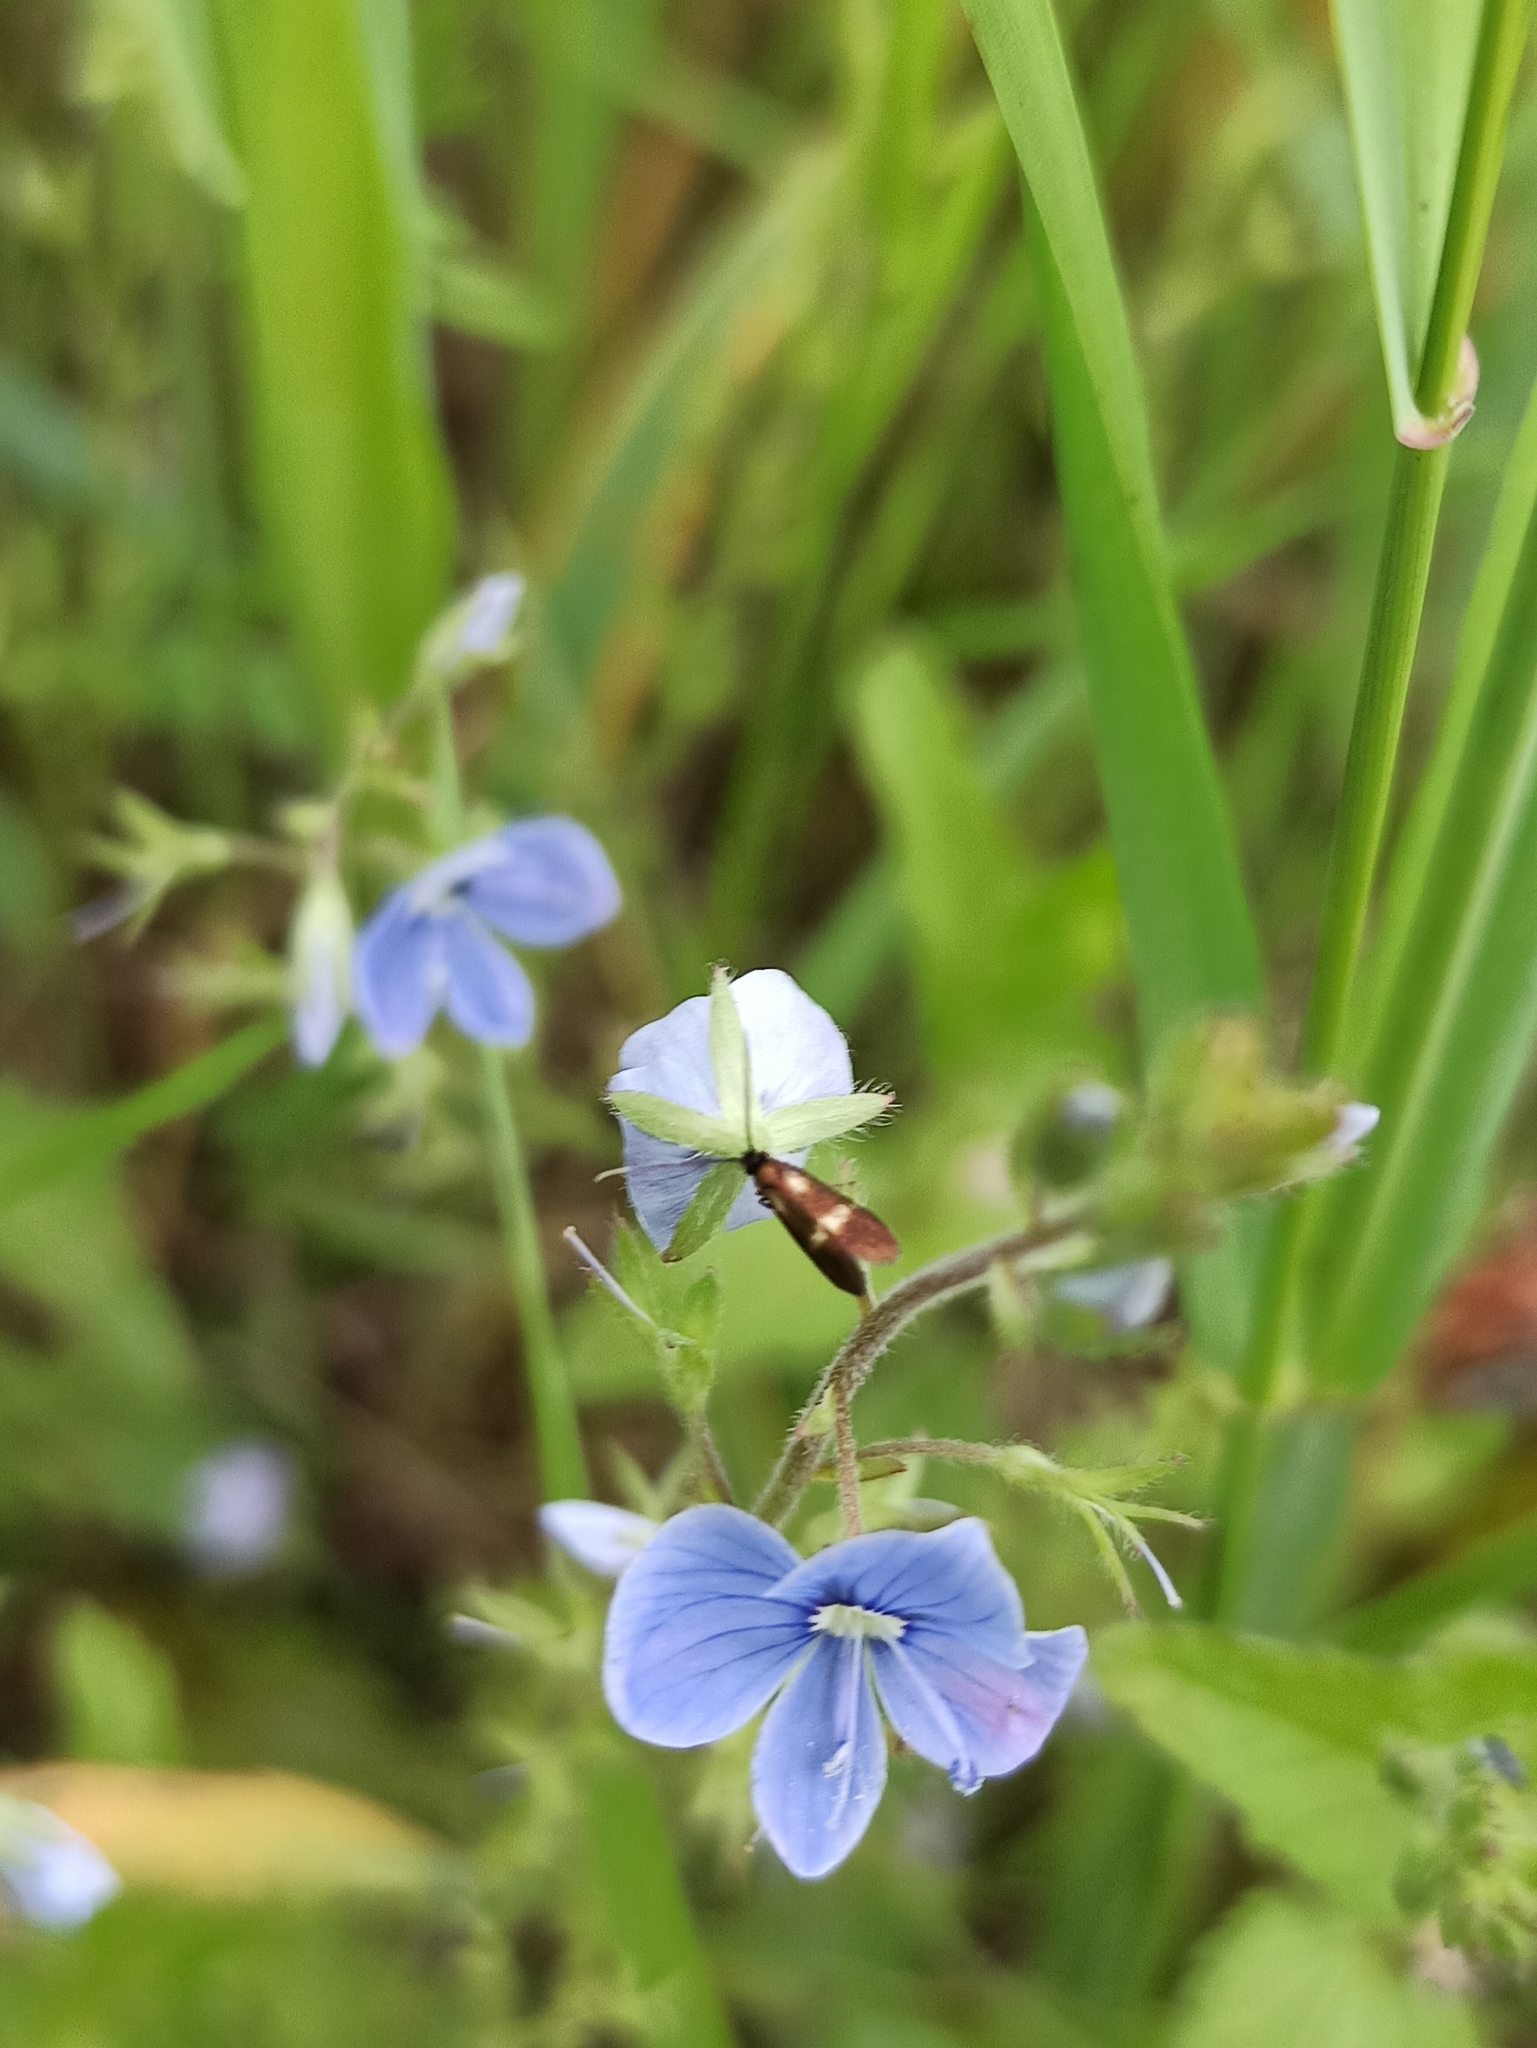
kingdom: Animalia
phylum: Arthropoda
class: Insecta
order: Lepidoptera
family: Adelidae
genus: Cauchas
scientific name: Cauchas fibulella
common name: Little long-horn
